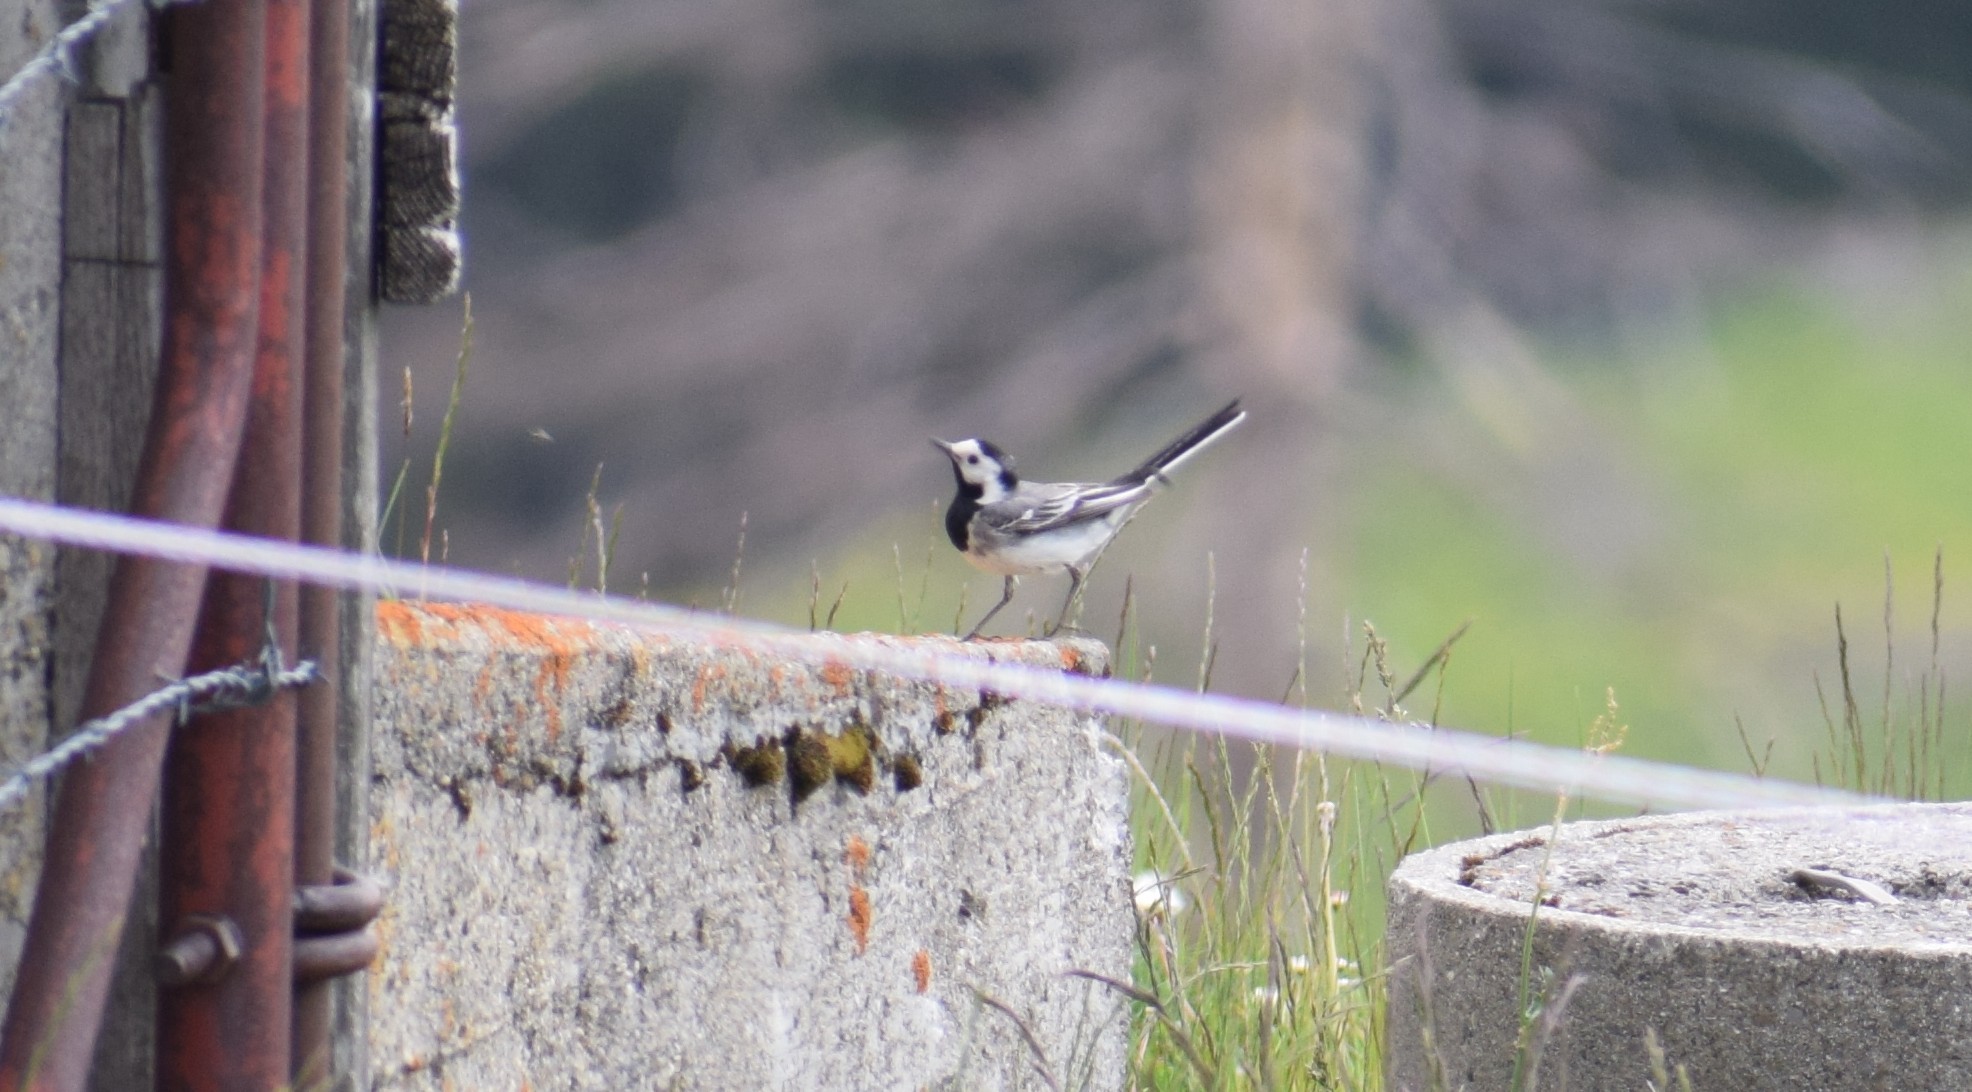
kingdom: Animalia
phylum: Chordata
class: Aves
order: Passeriformes
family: Motacillidae
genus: Motacilla
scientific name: Motacilla alba
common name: White wagtail
